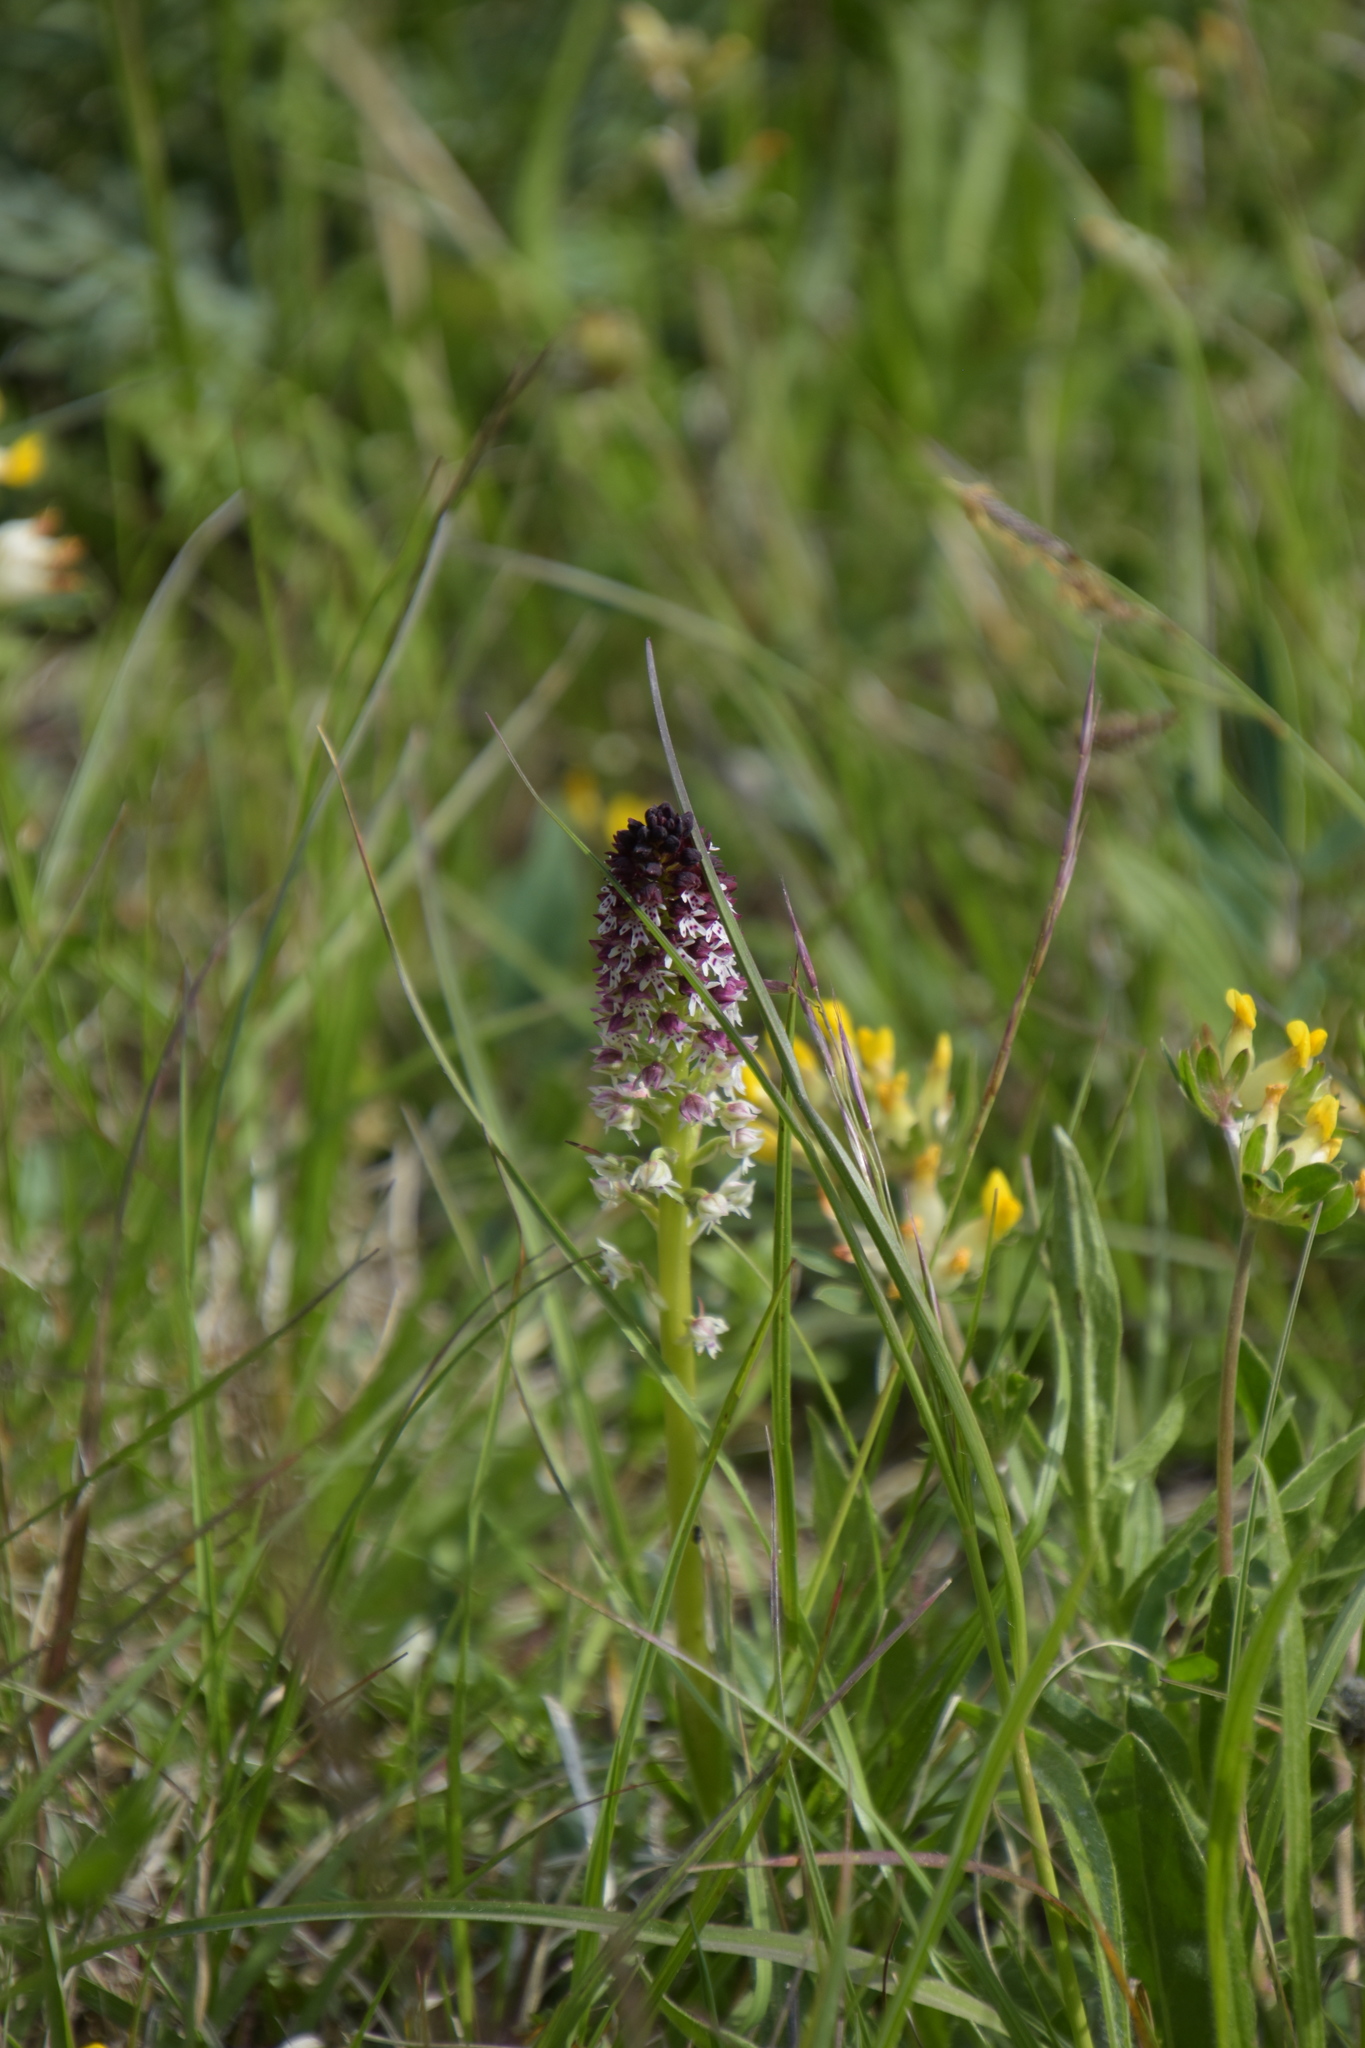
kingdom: Plantae
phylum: Tracheophyta
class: Liliopsida
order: Asparagales
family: Orchidaceae
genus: Neotinea
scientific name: Neotinea ustulata
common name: Burnt orchid
